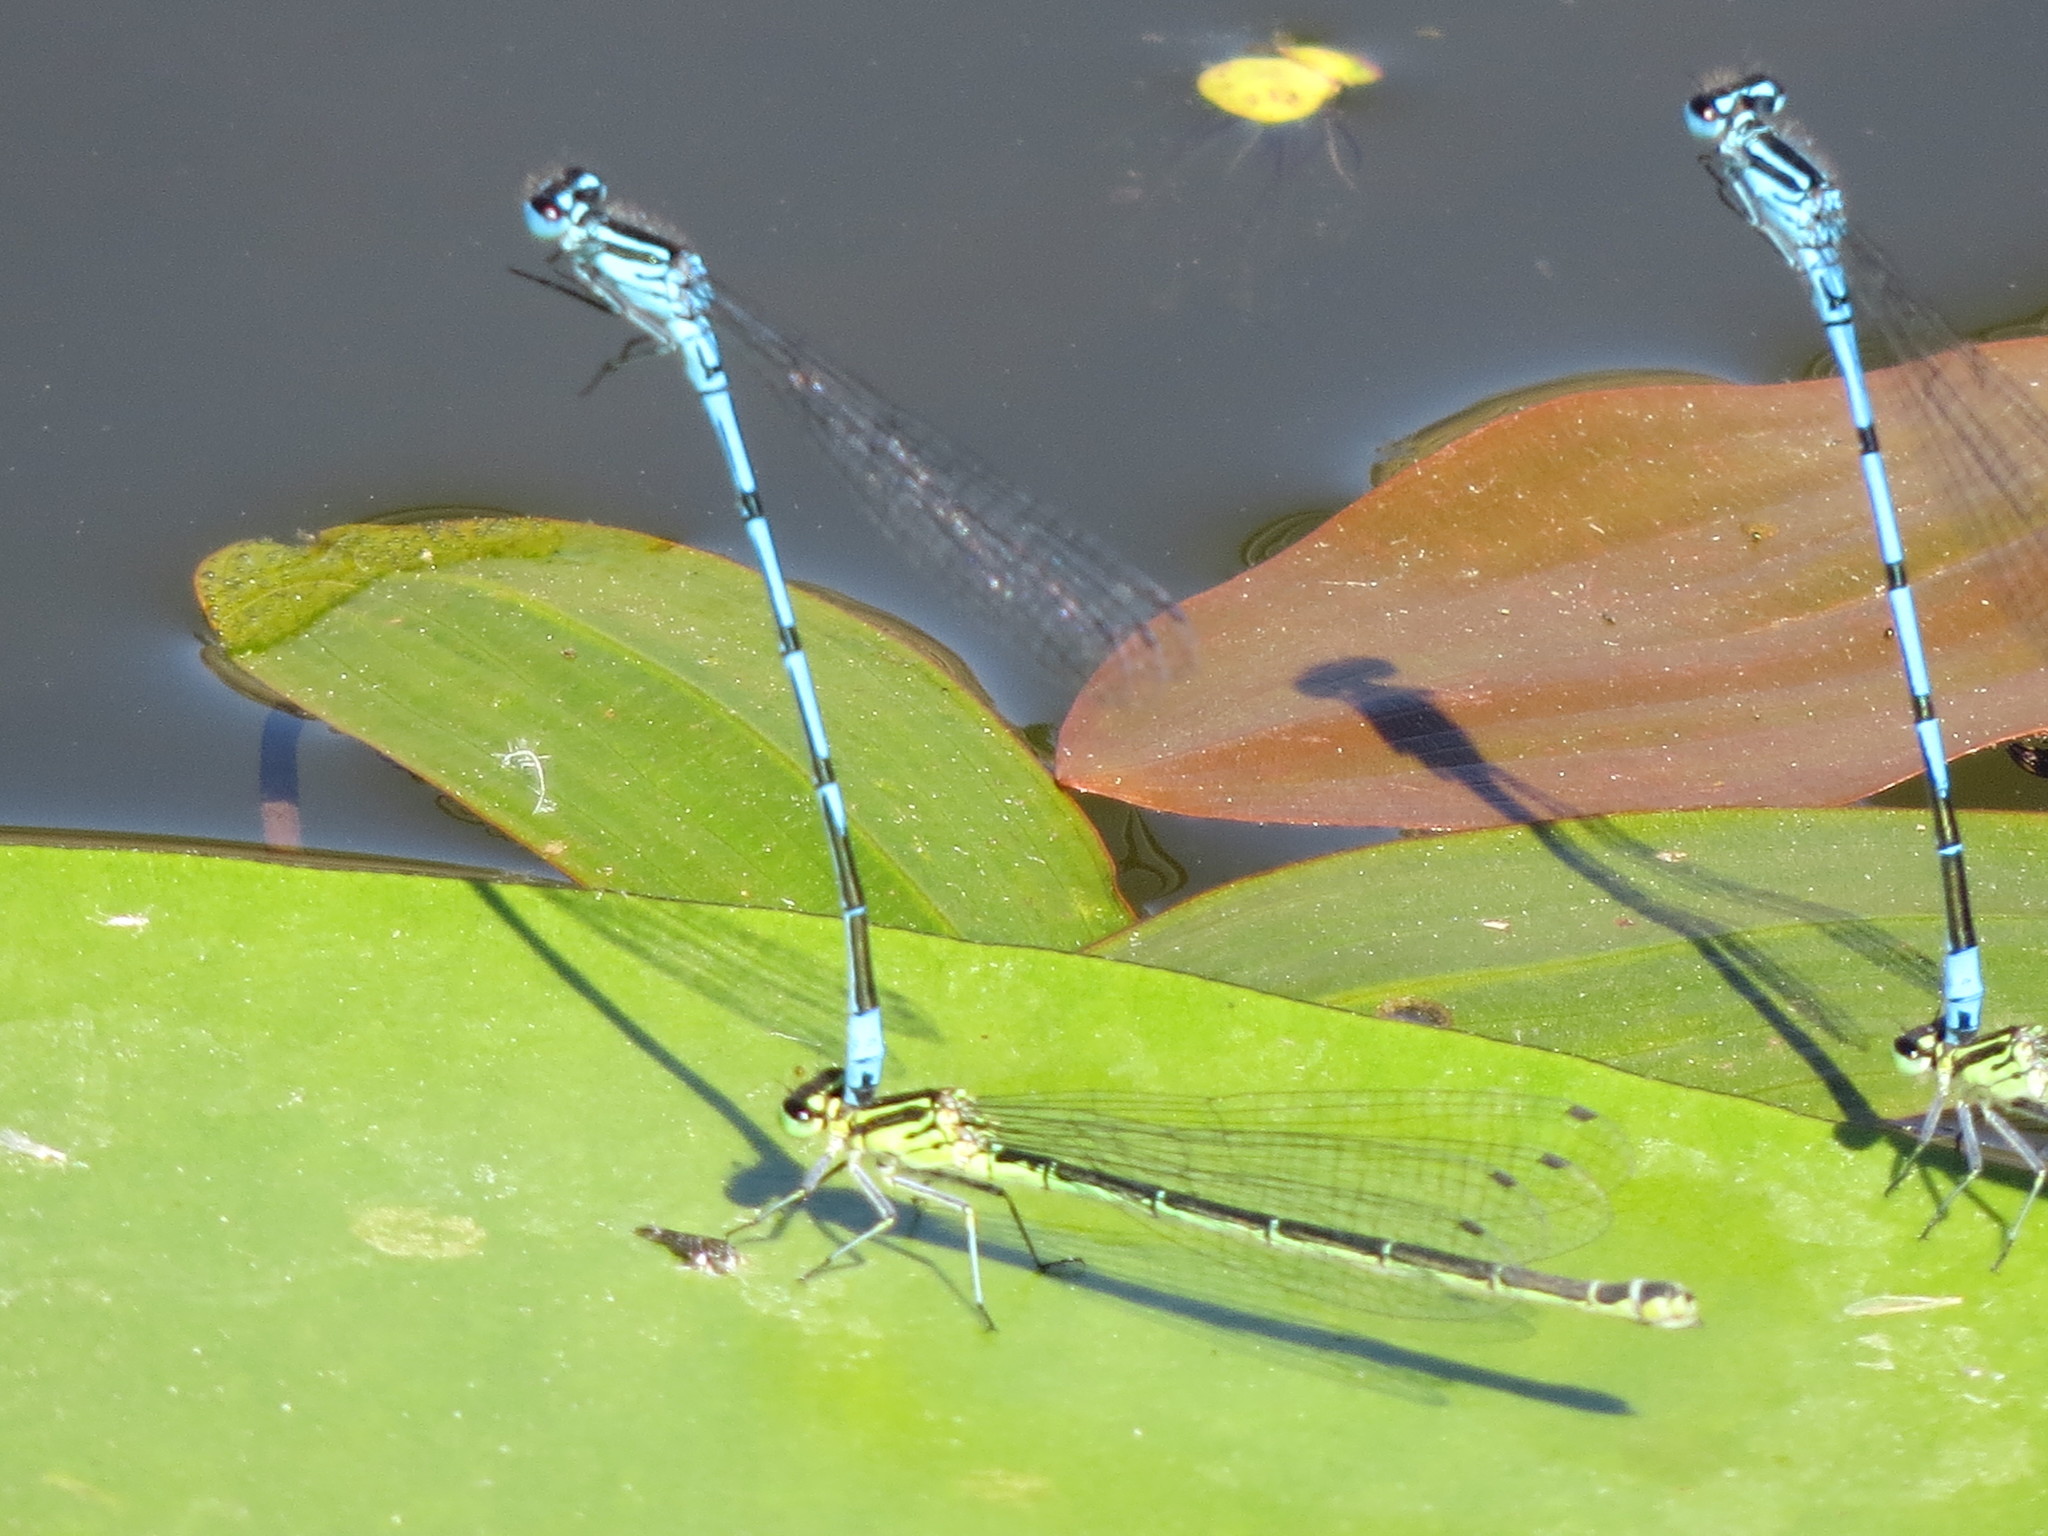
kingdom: Animalia
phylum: Arthropoda
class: Insecta
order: Odonata
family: Coenagrionidae
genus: Coenagrion
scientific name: Coenagrion puella
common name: Azure damselfly
